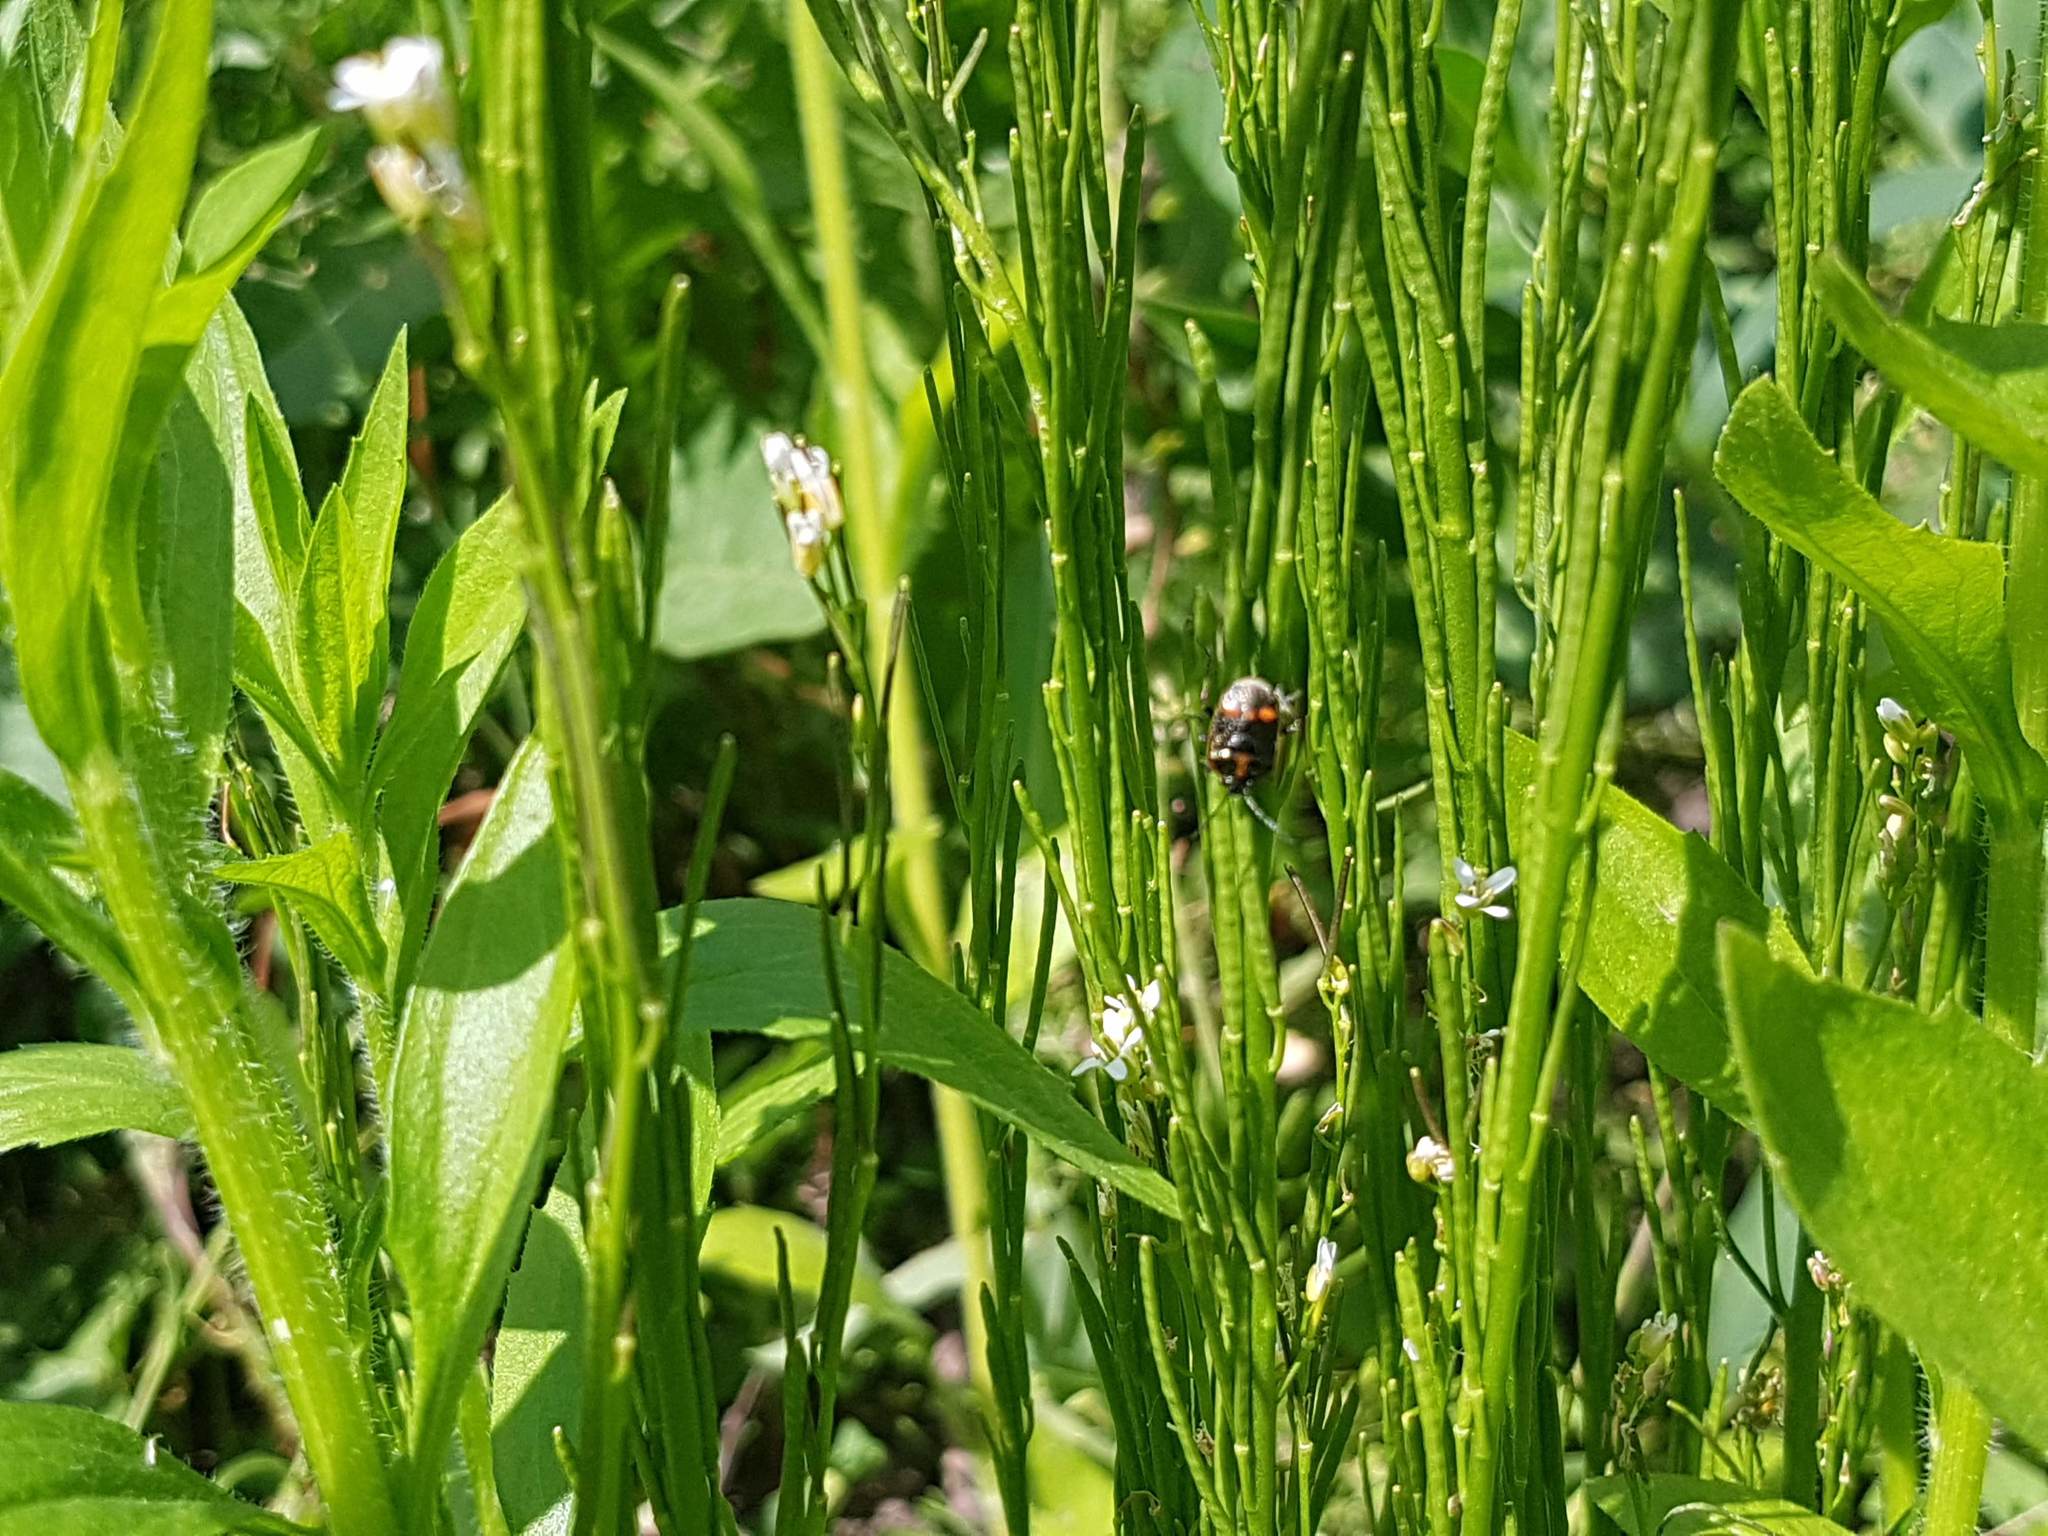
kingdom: Animalia
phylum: Arthropoda
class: Insecta
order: Hemiptera
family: Pentatomidae
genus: Eurydema
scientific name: Eurydema oleracea
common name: Cabbage bug
